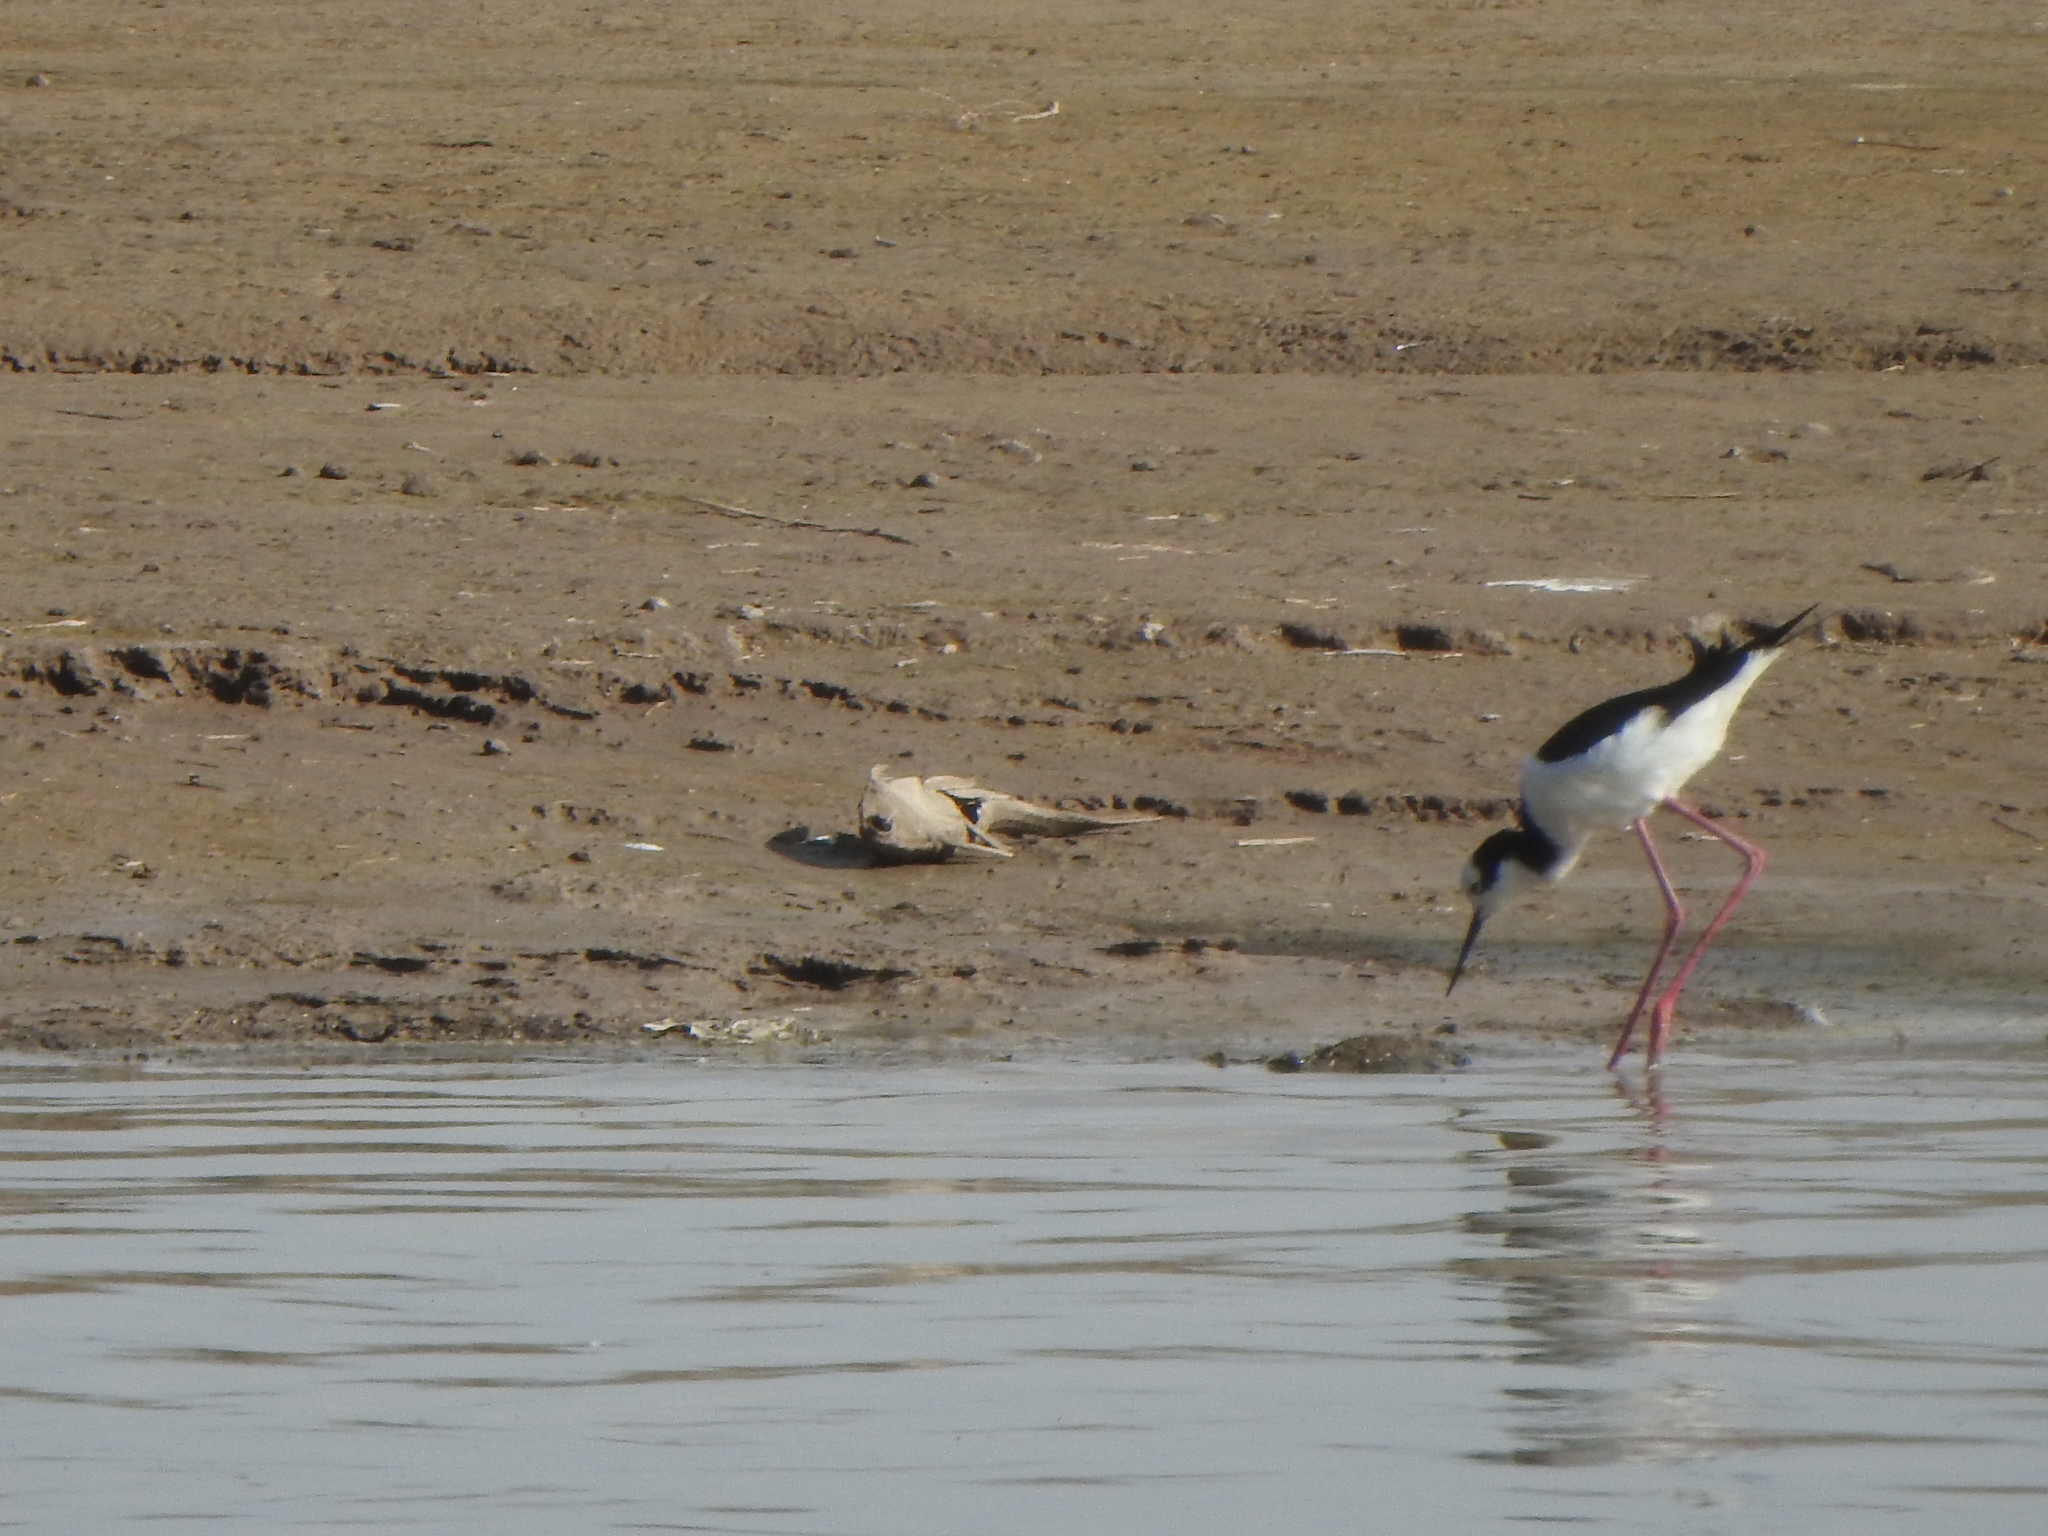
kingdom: Animalia
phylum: Chordata
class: Aves
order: Charadriiformes
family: Recurvirostridae
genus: Himantopus
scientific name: Himantopus mexicanus
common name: Black-necked stilt
